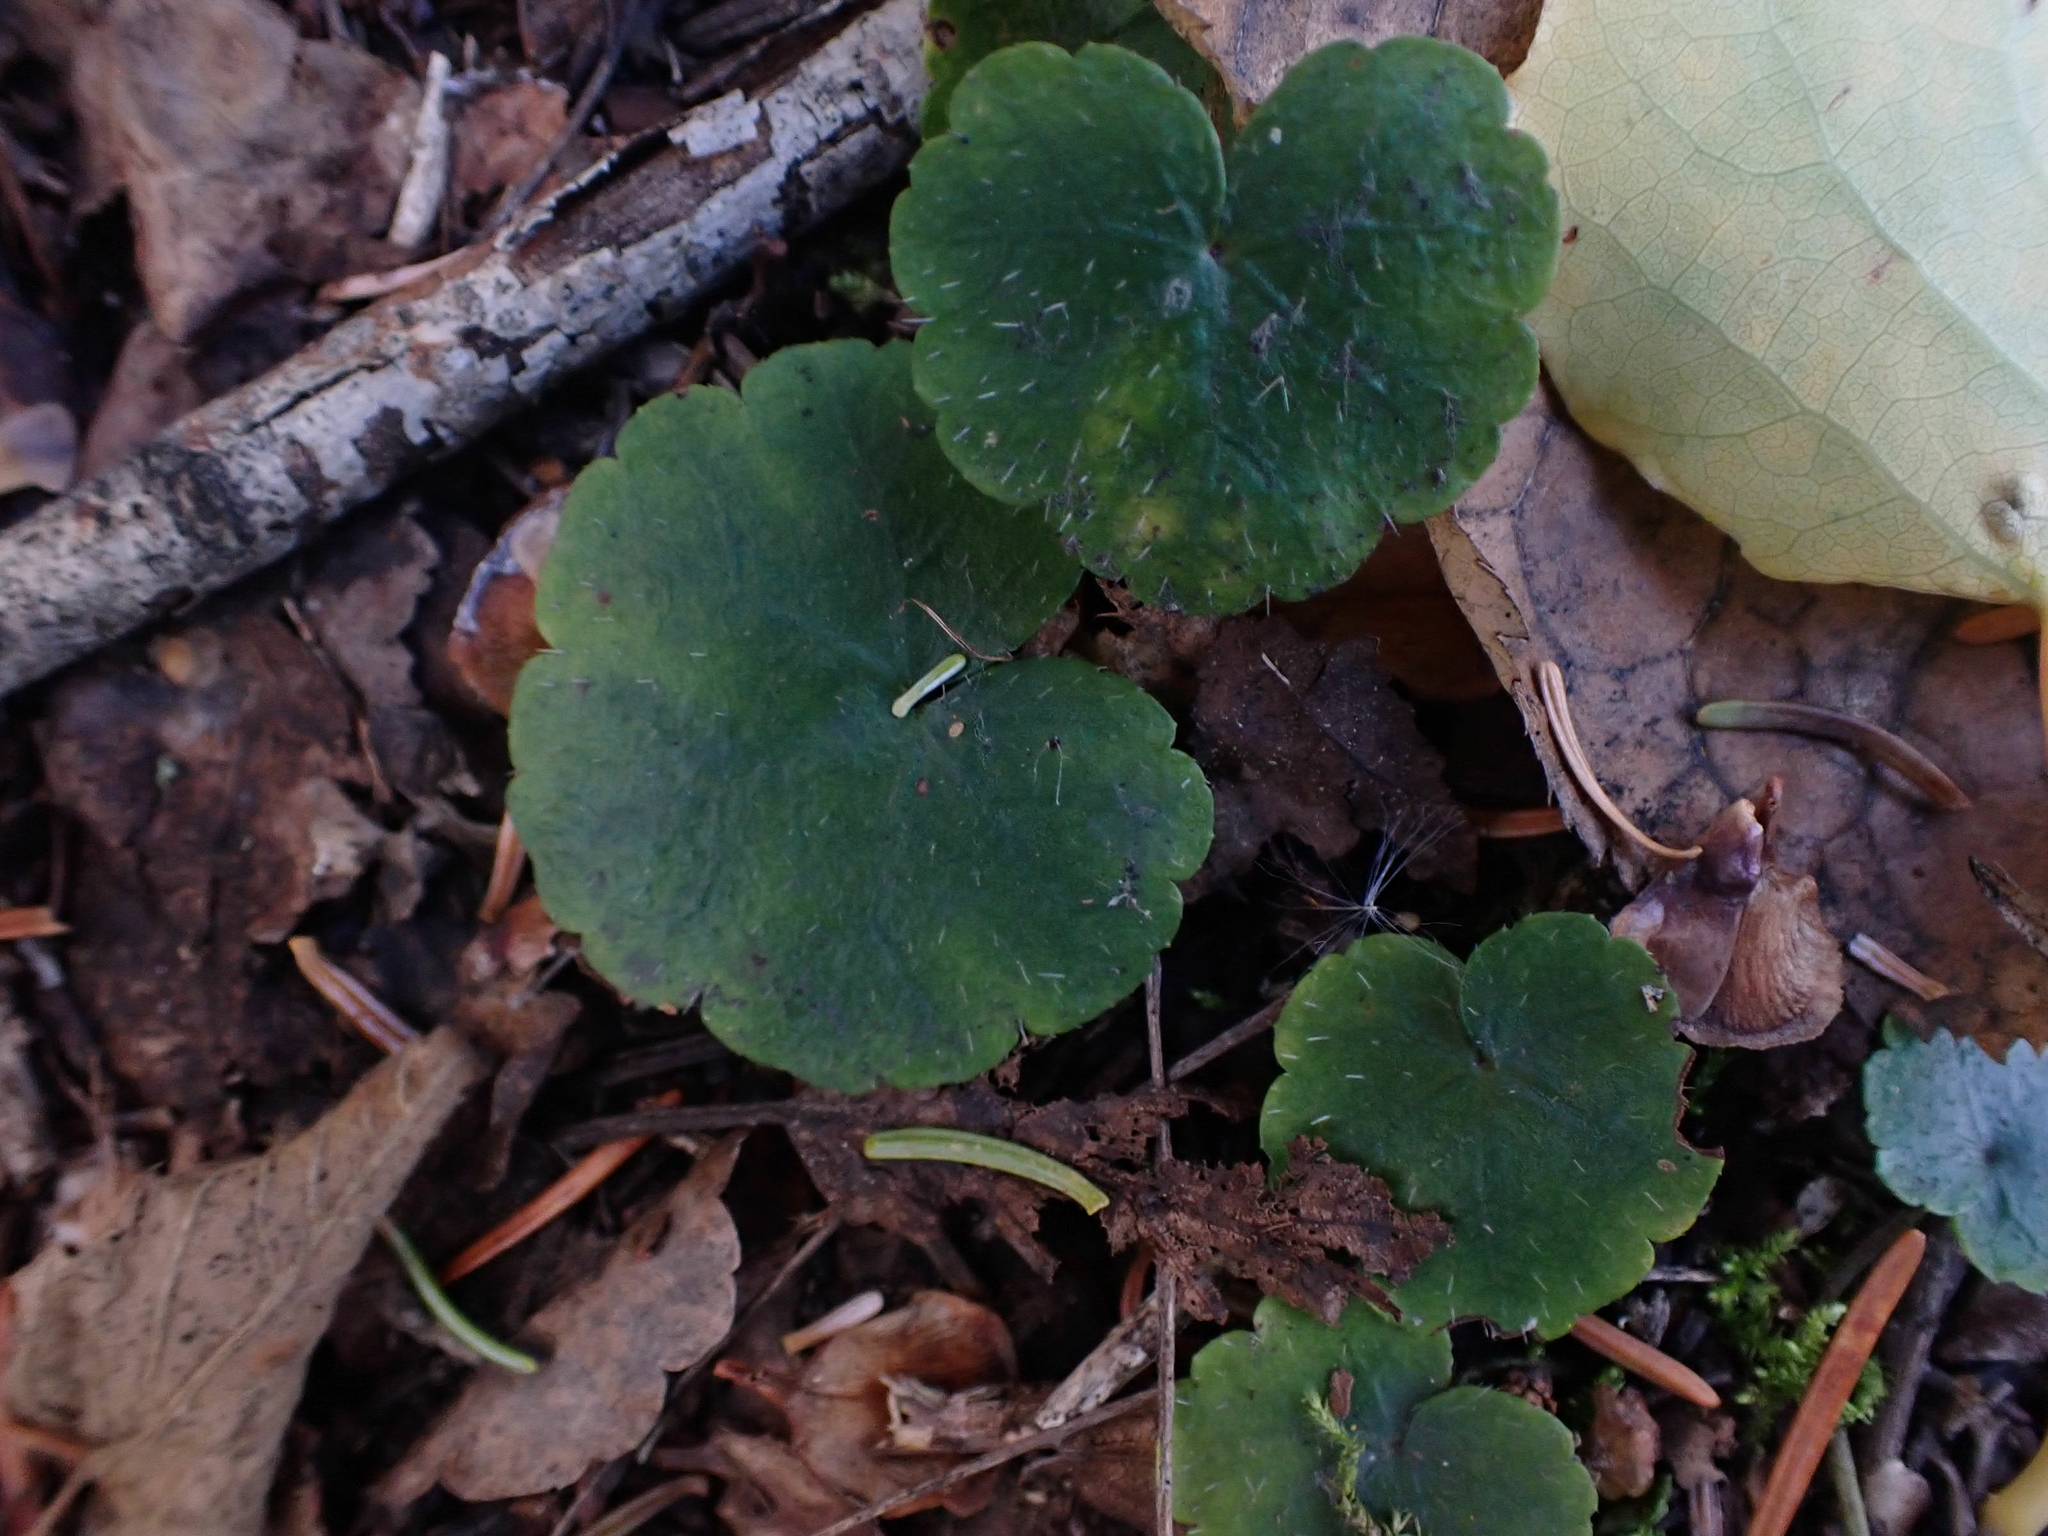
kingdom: Plantae
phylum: Tracheophyta
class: Magnoliopsida
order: Saxifragales
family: Saxifragaceae
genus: Mitella
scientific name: Mitella nuda
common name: Bare-stemmed bishop's-cap
